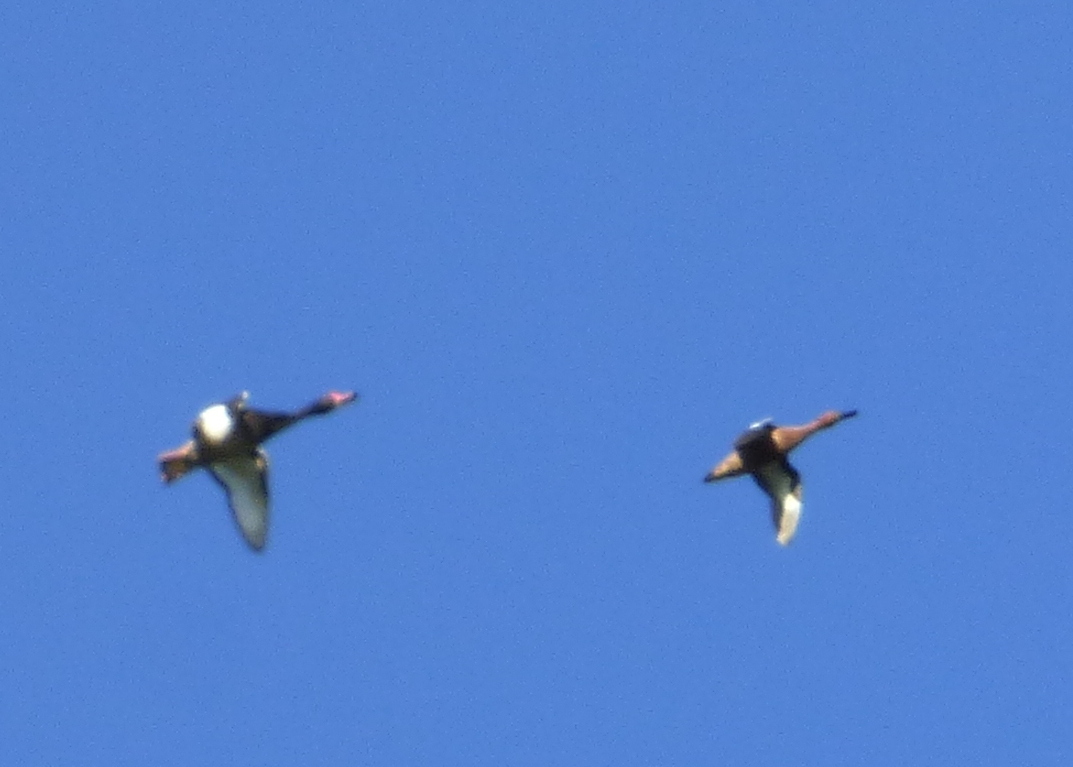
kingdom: Animalia
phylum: Chordata
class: Aves
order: Anseriformes
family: Anatidae
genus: Netta
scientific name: Netta peposaca
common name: Rosy-billed pochard
